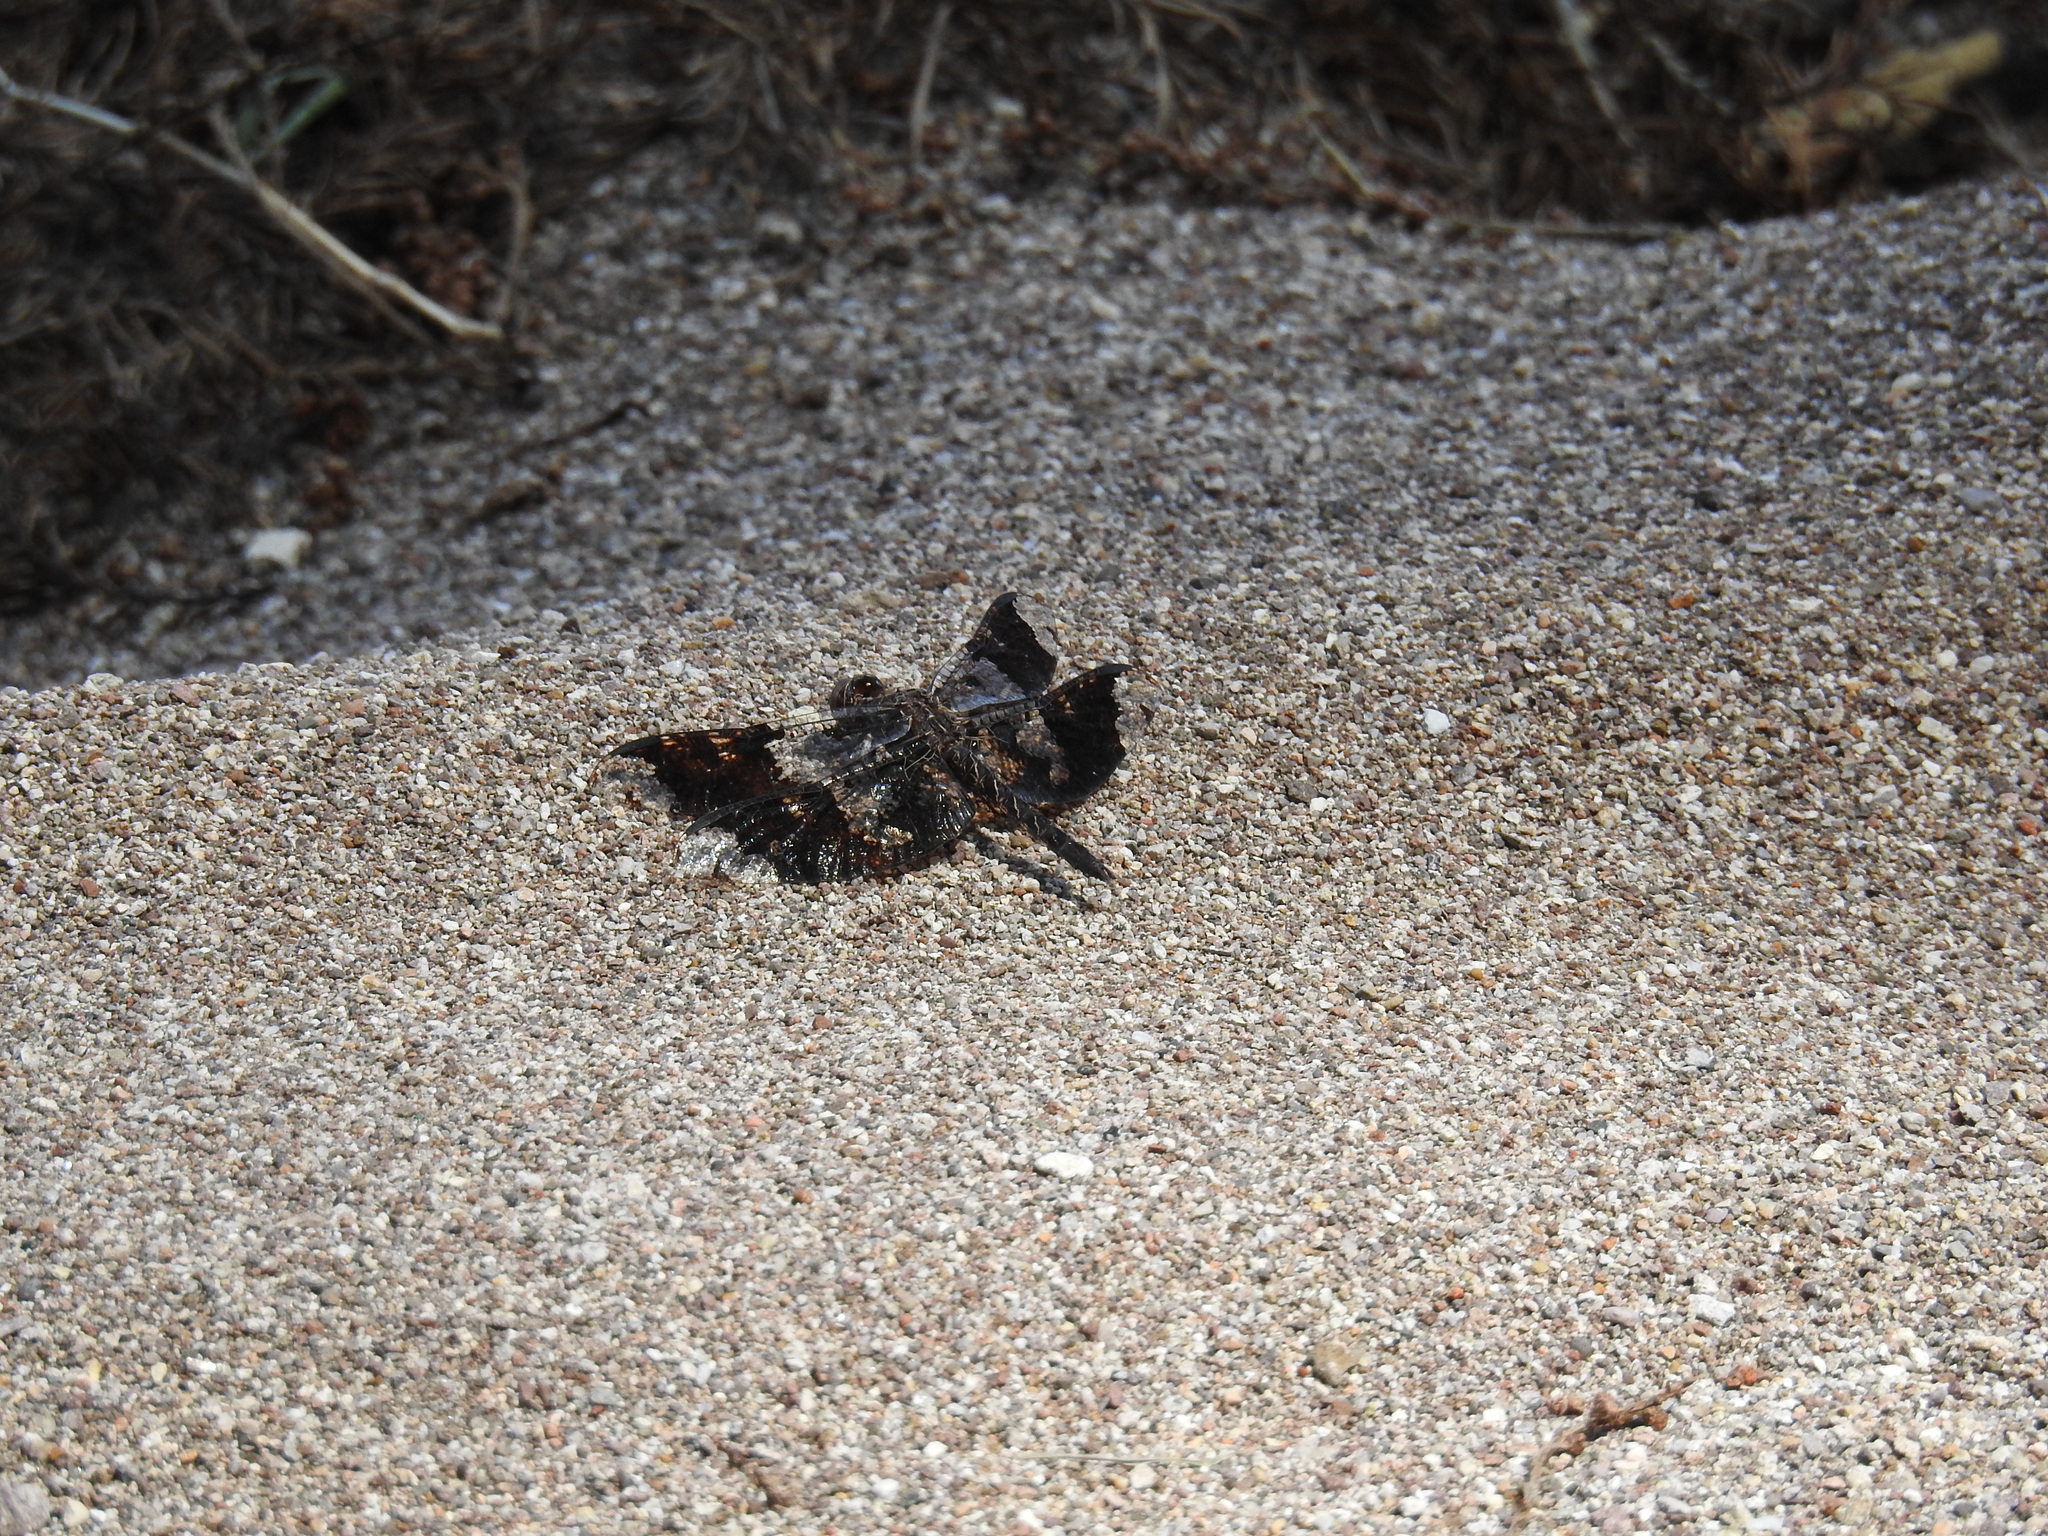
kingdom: Animalia
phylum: Arthropoda
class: Insecta
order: Odonata
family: Libellulidae
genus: Pseudoleon
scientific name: Pseudoleon superbus
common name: Filigree skimmer
